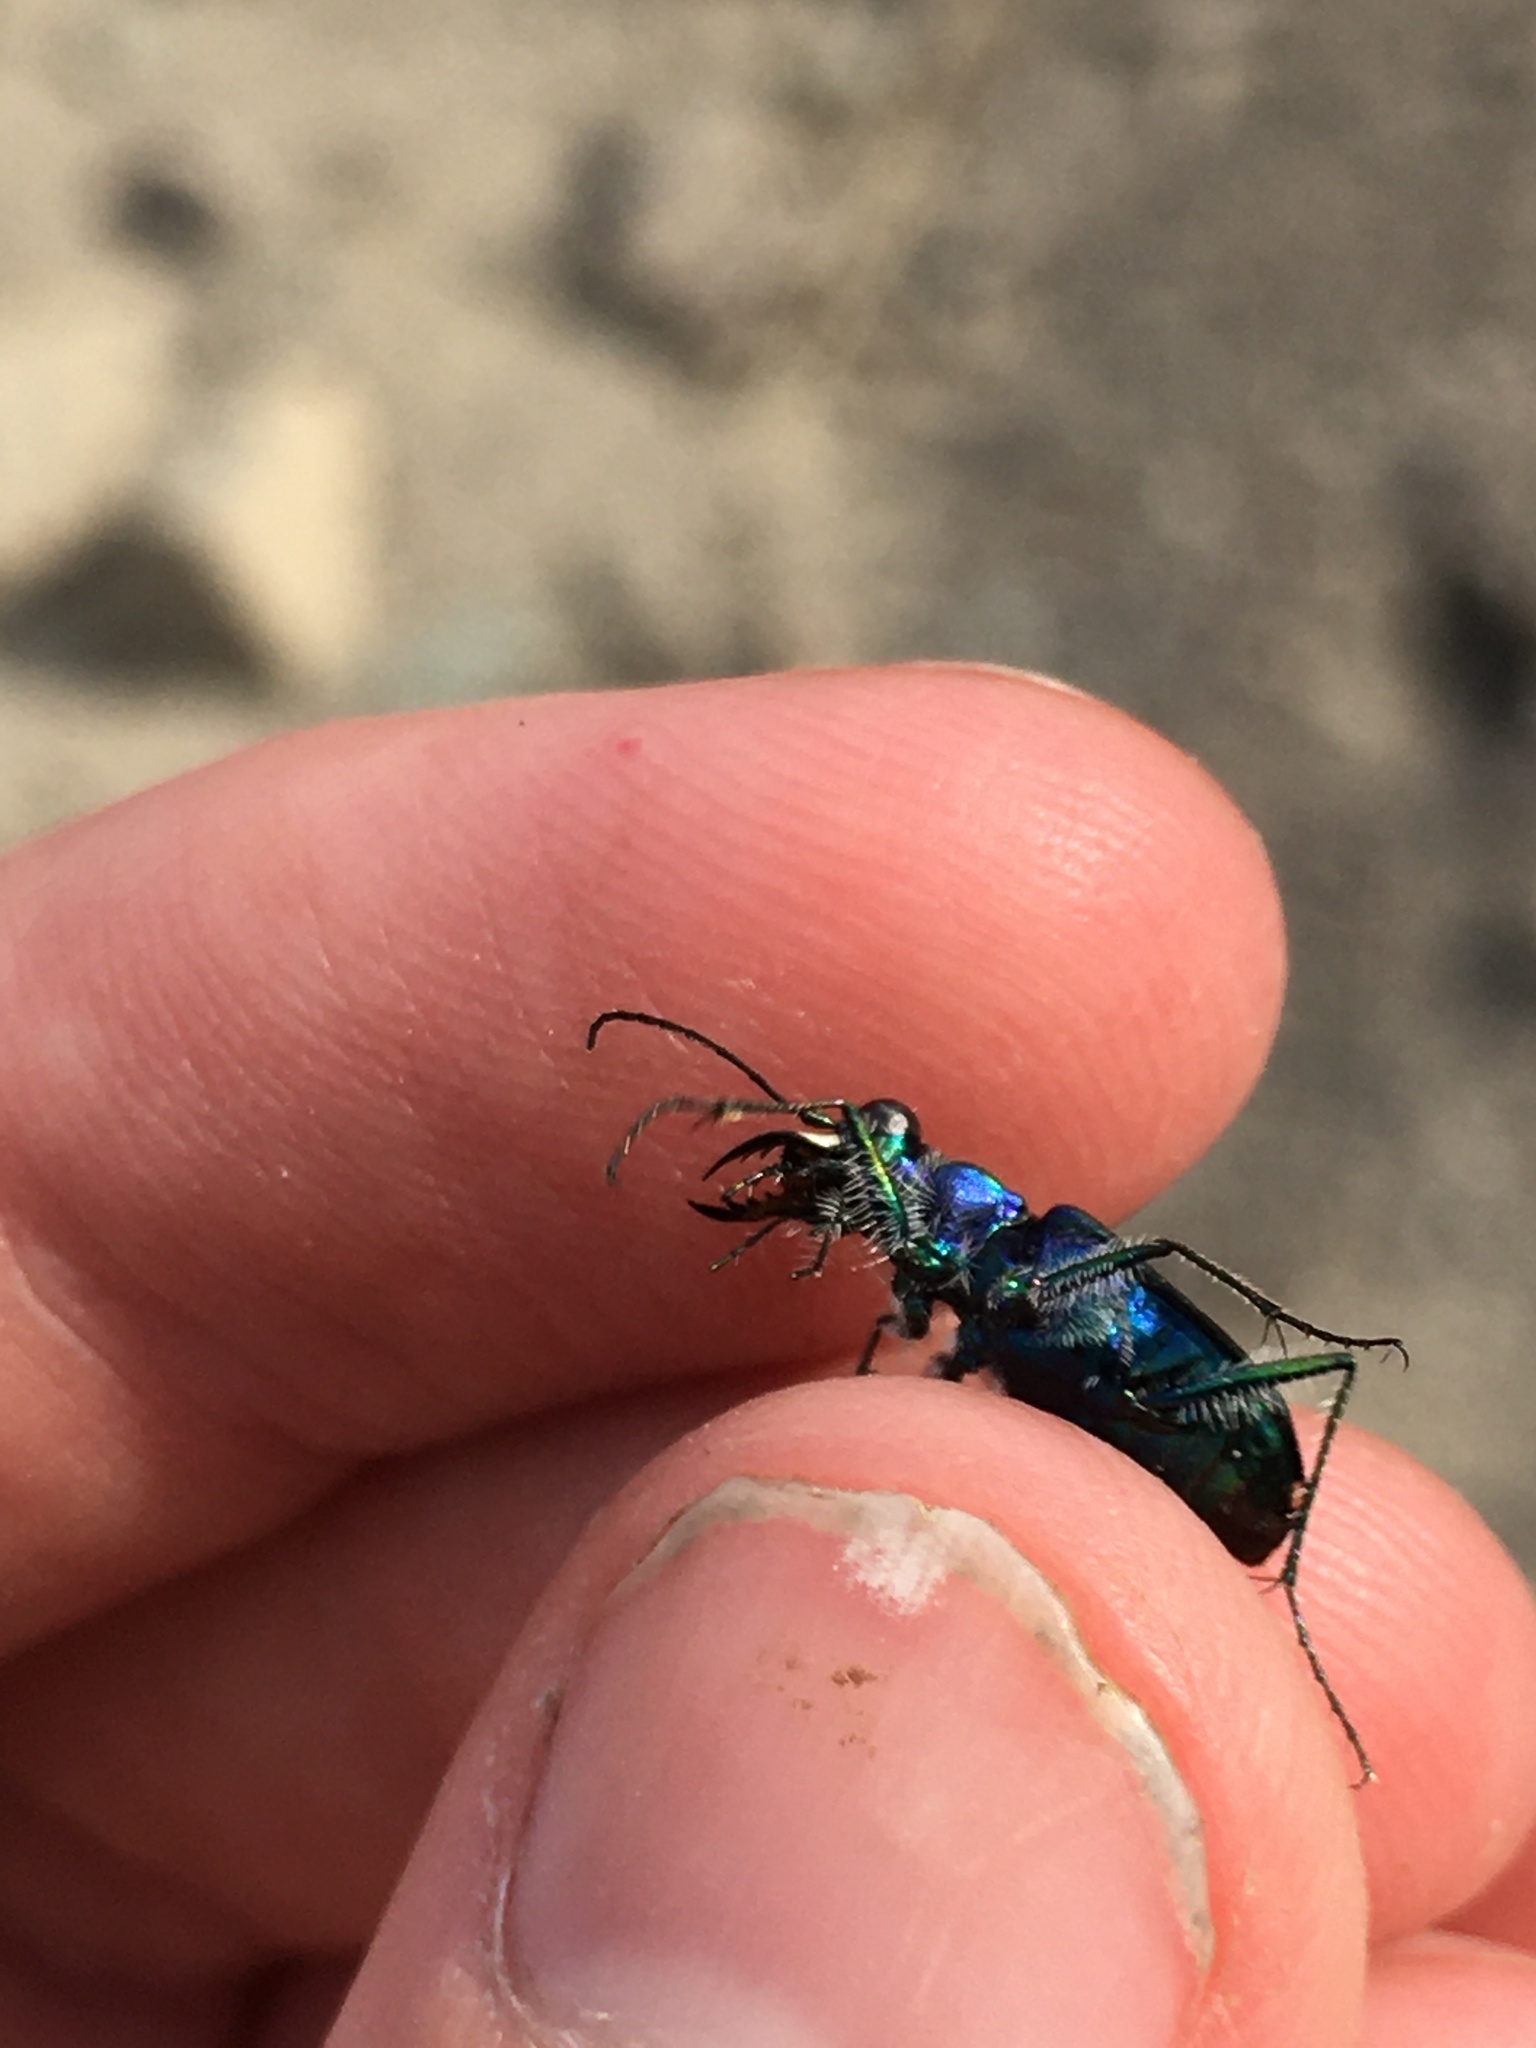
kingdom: Animalia
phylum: Arthropoda
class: Insecta
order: Coleoptera
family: Carabidae
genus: Cicindela
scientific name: Cicindela oregona
